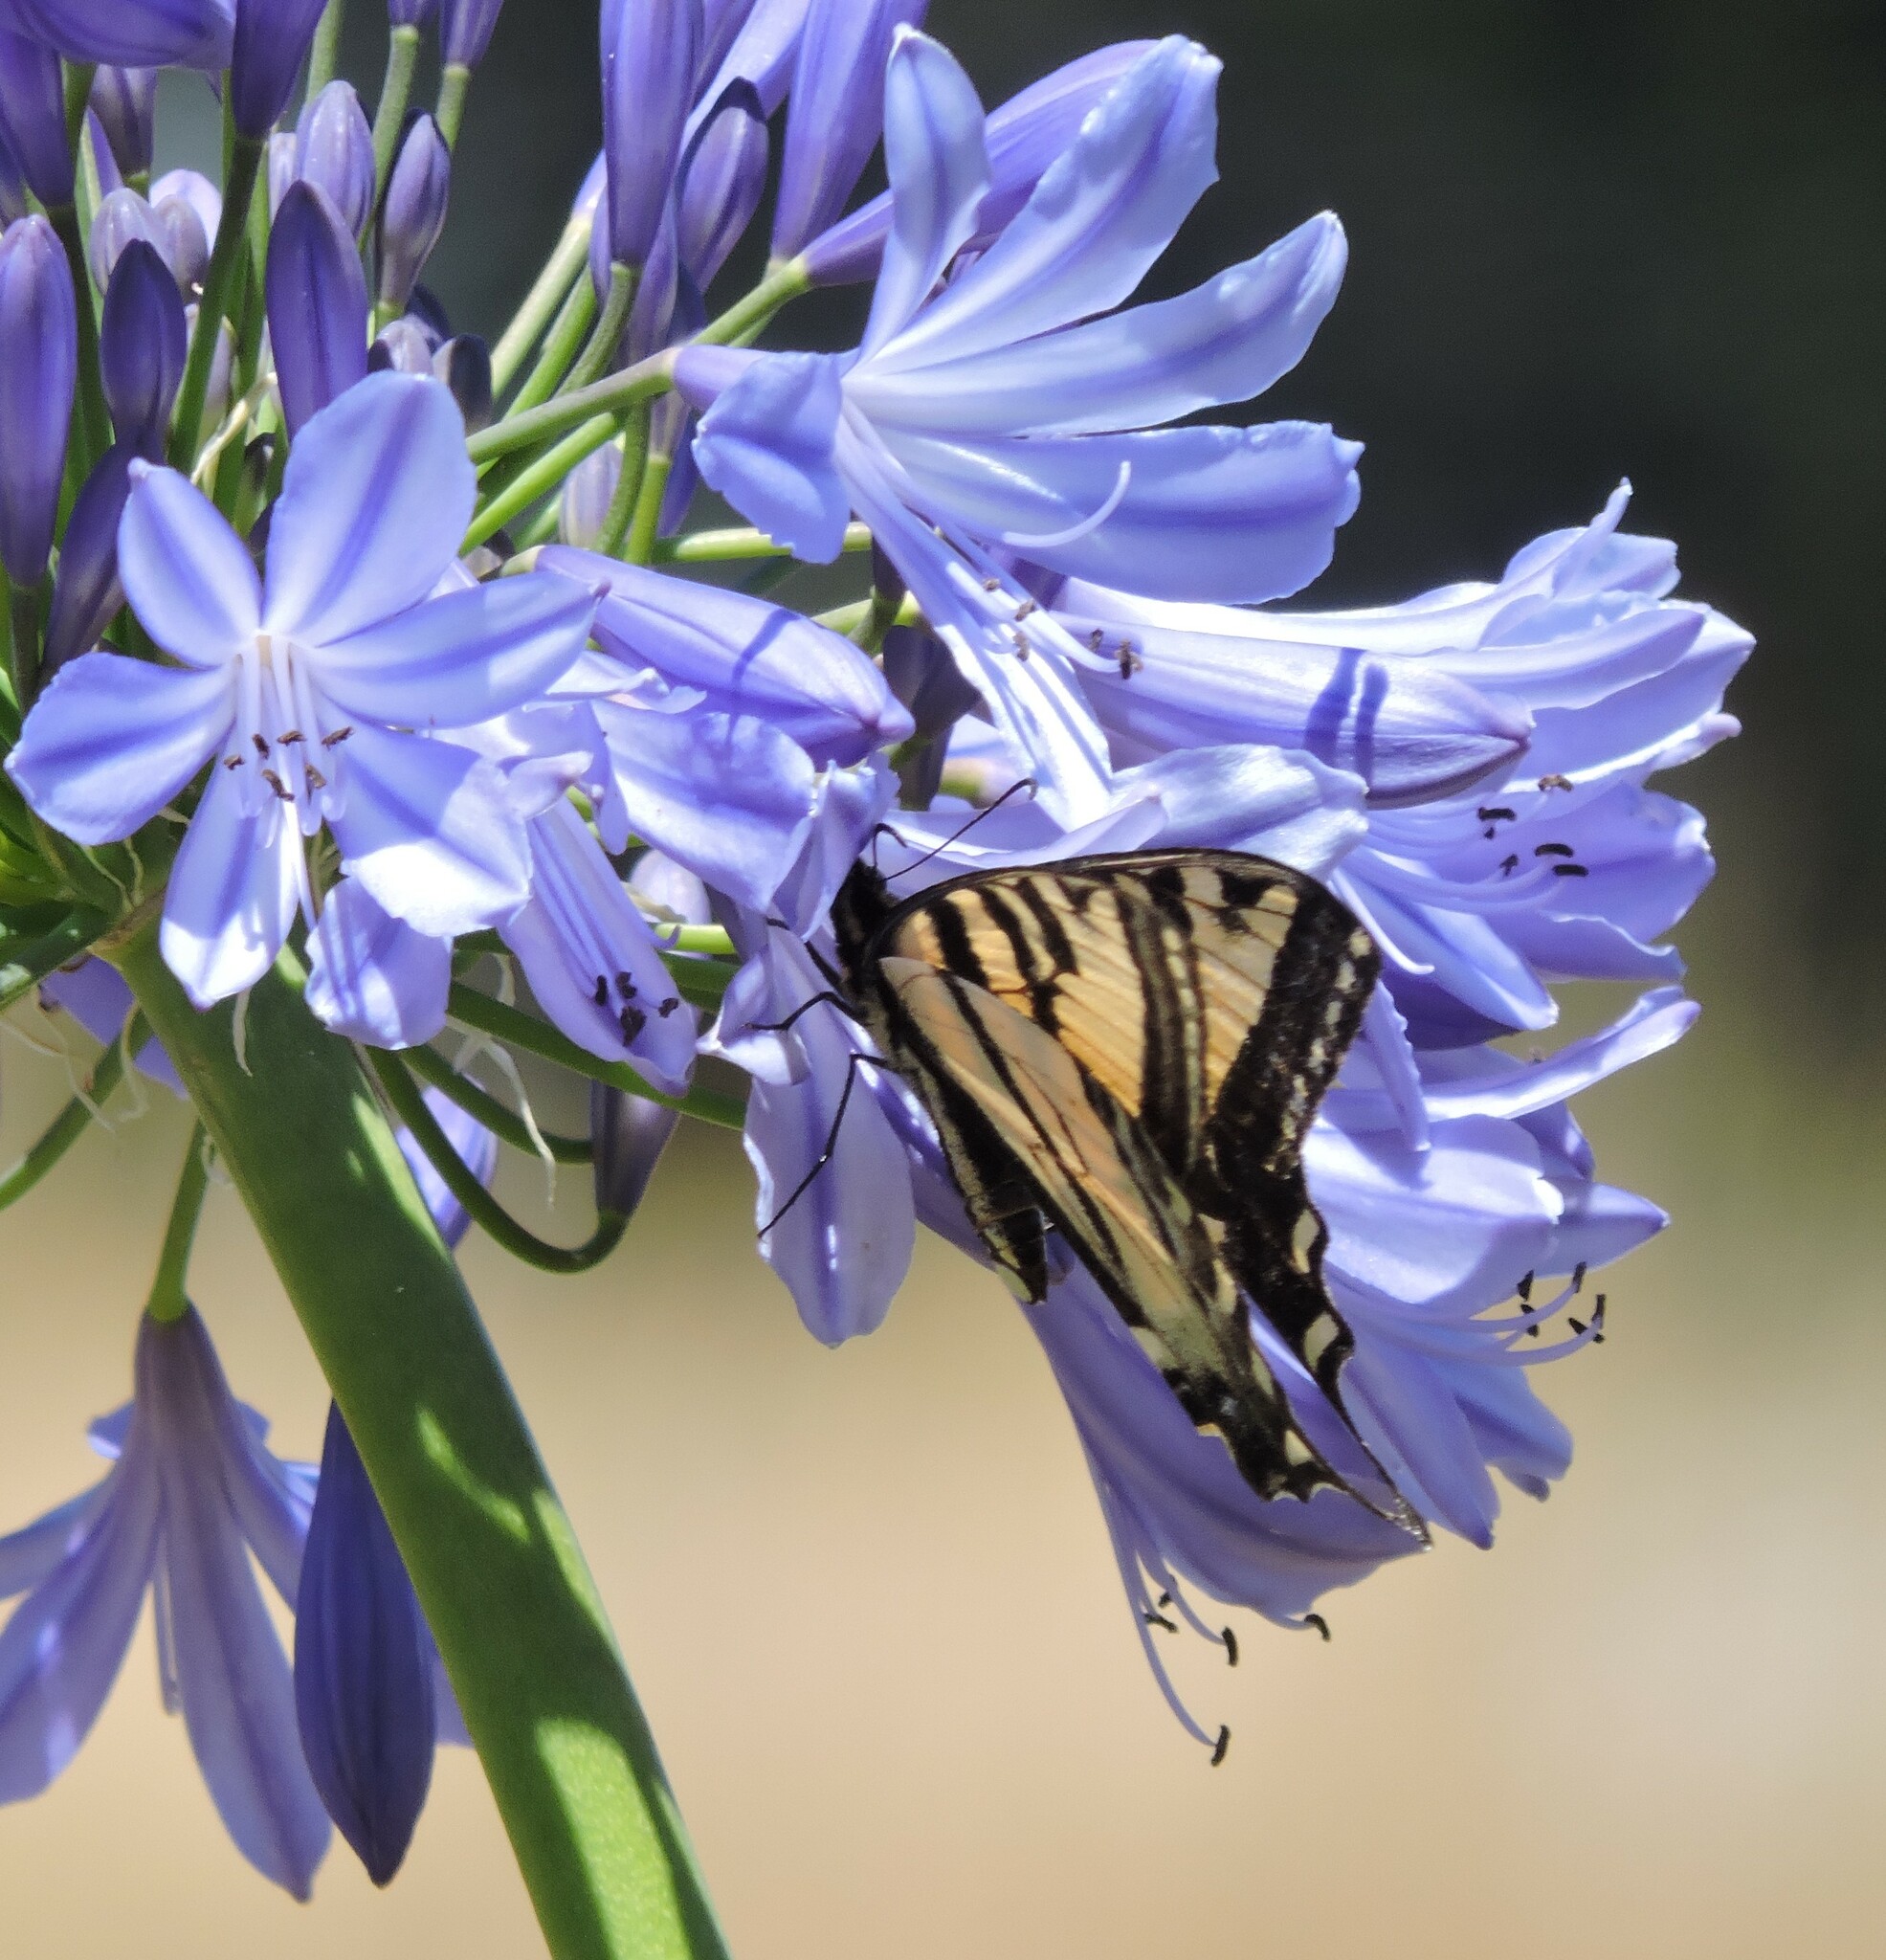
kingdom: Animalia
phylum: Arthropoda
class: Insecta
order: Lepidoptera
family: Papilionidae
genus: Papilio
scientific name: Papilio rutulus
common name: Western tiger swallowtail
